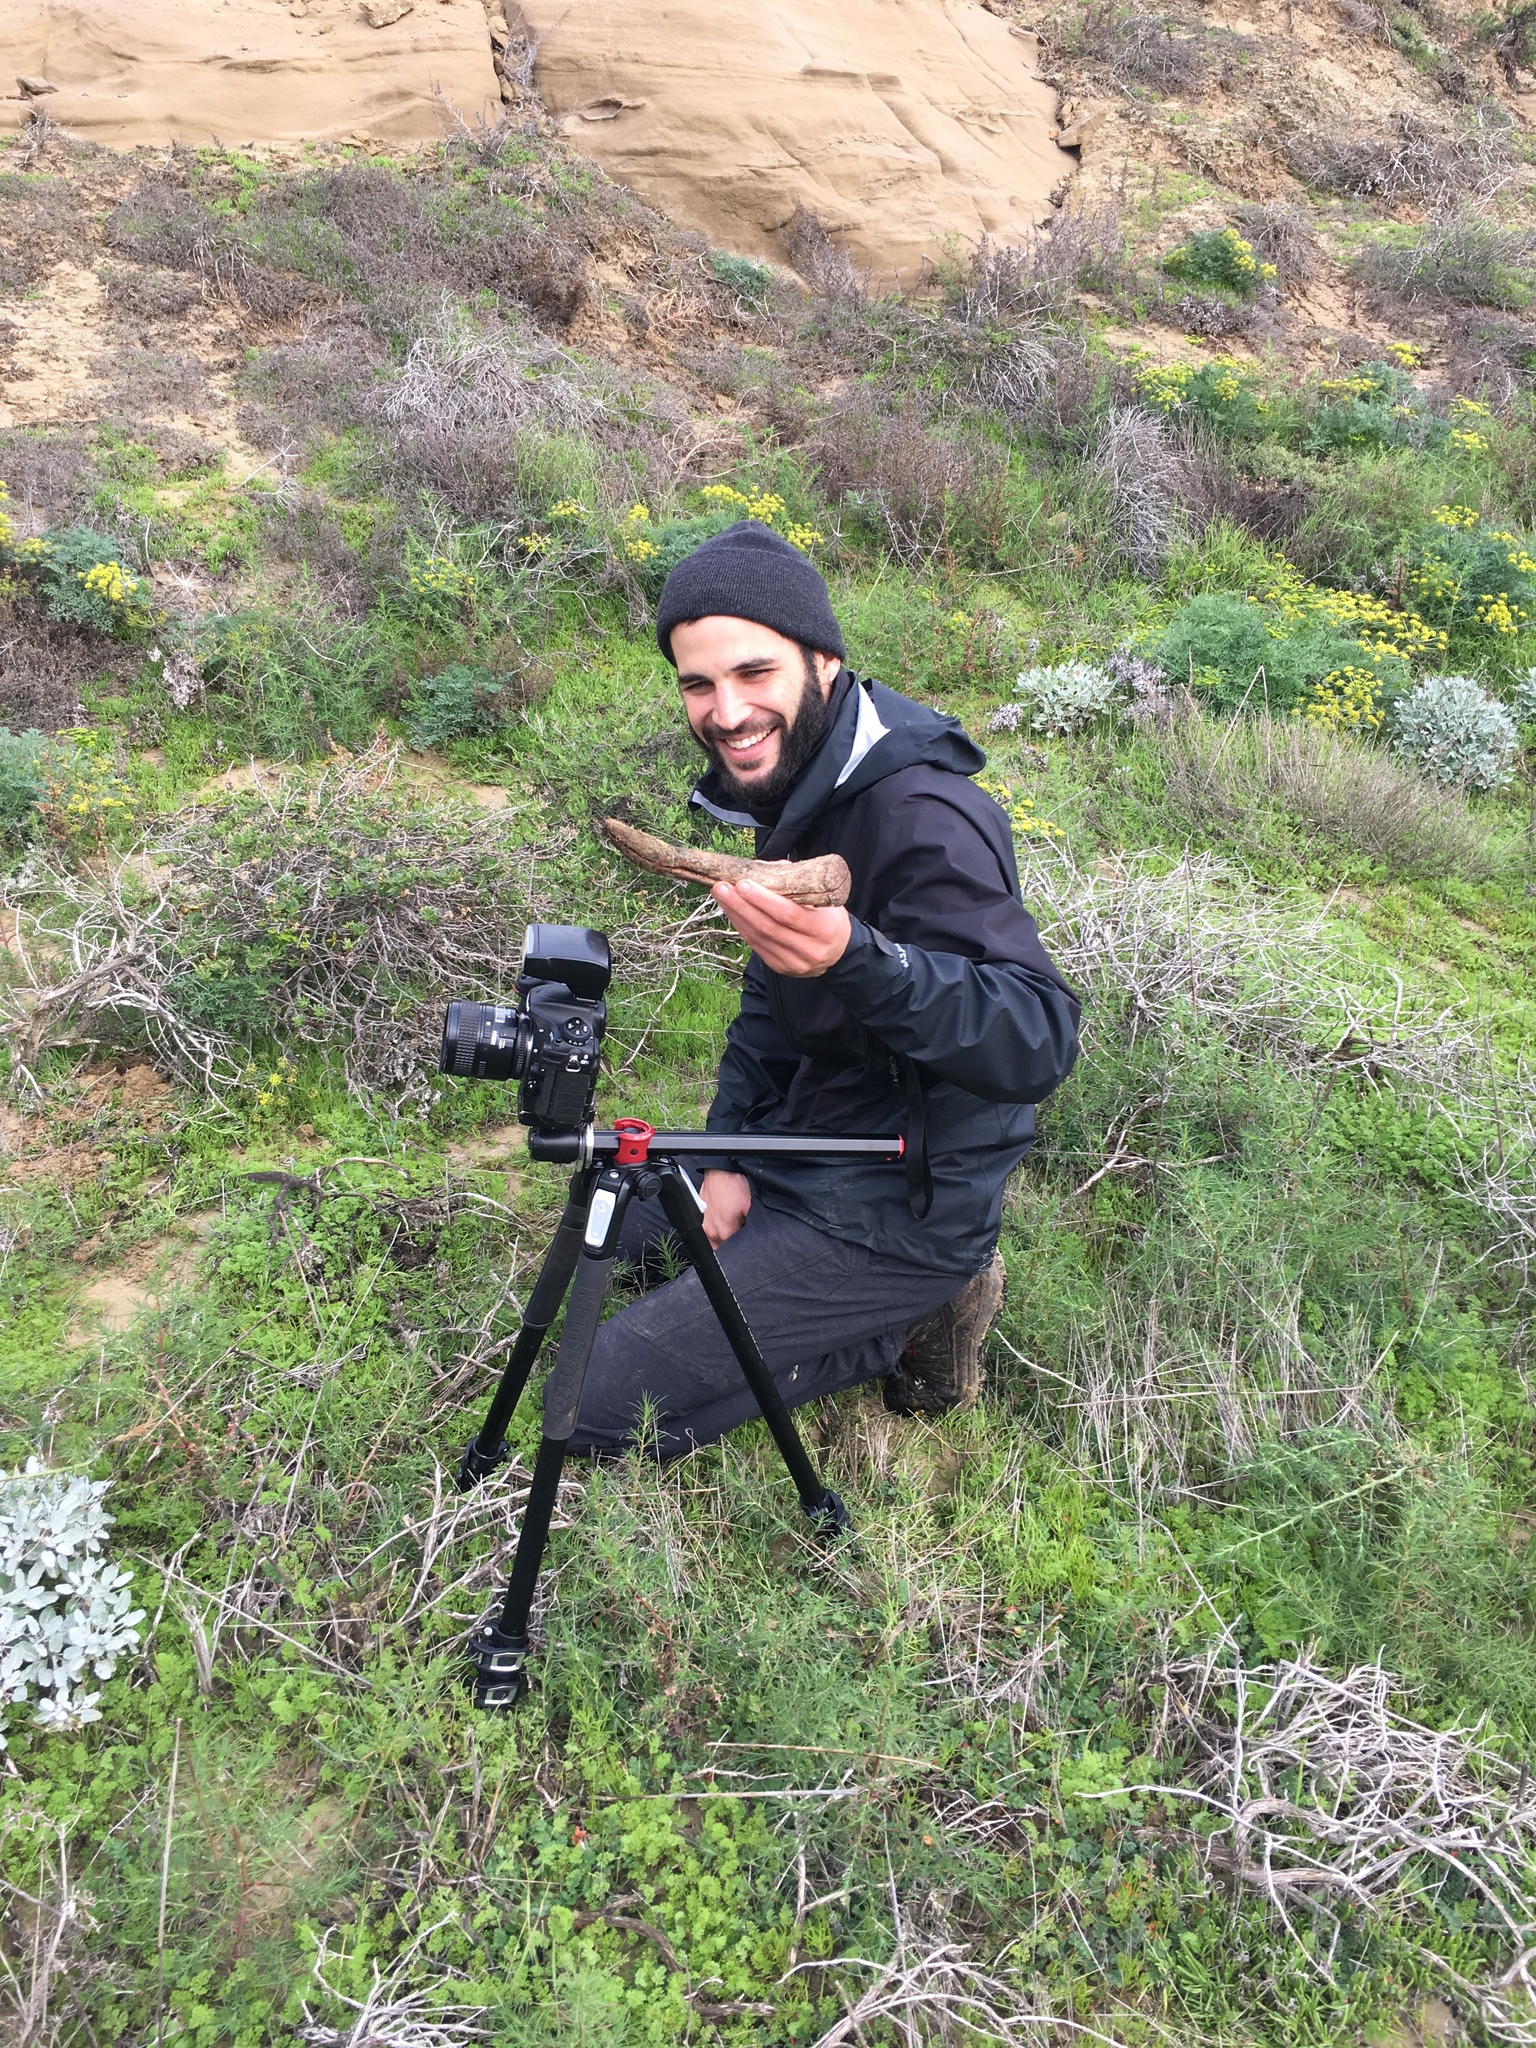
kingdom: Fungi
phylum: Basidiomycota
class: Agaricomycetes
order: Agaricales
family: Agaricaceae
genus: Dictyocephalos
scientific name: Dictyocephalos attenuatus
